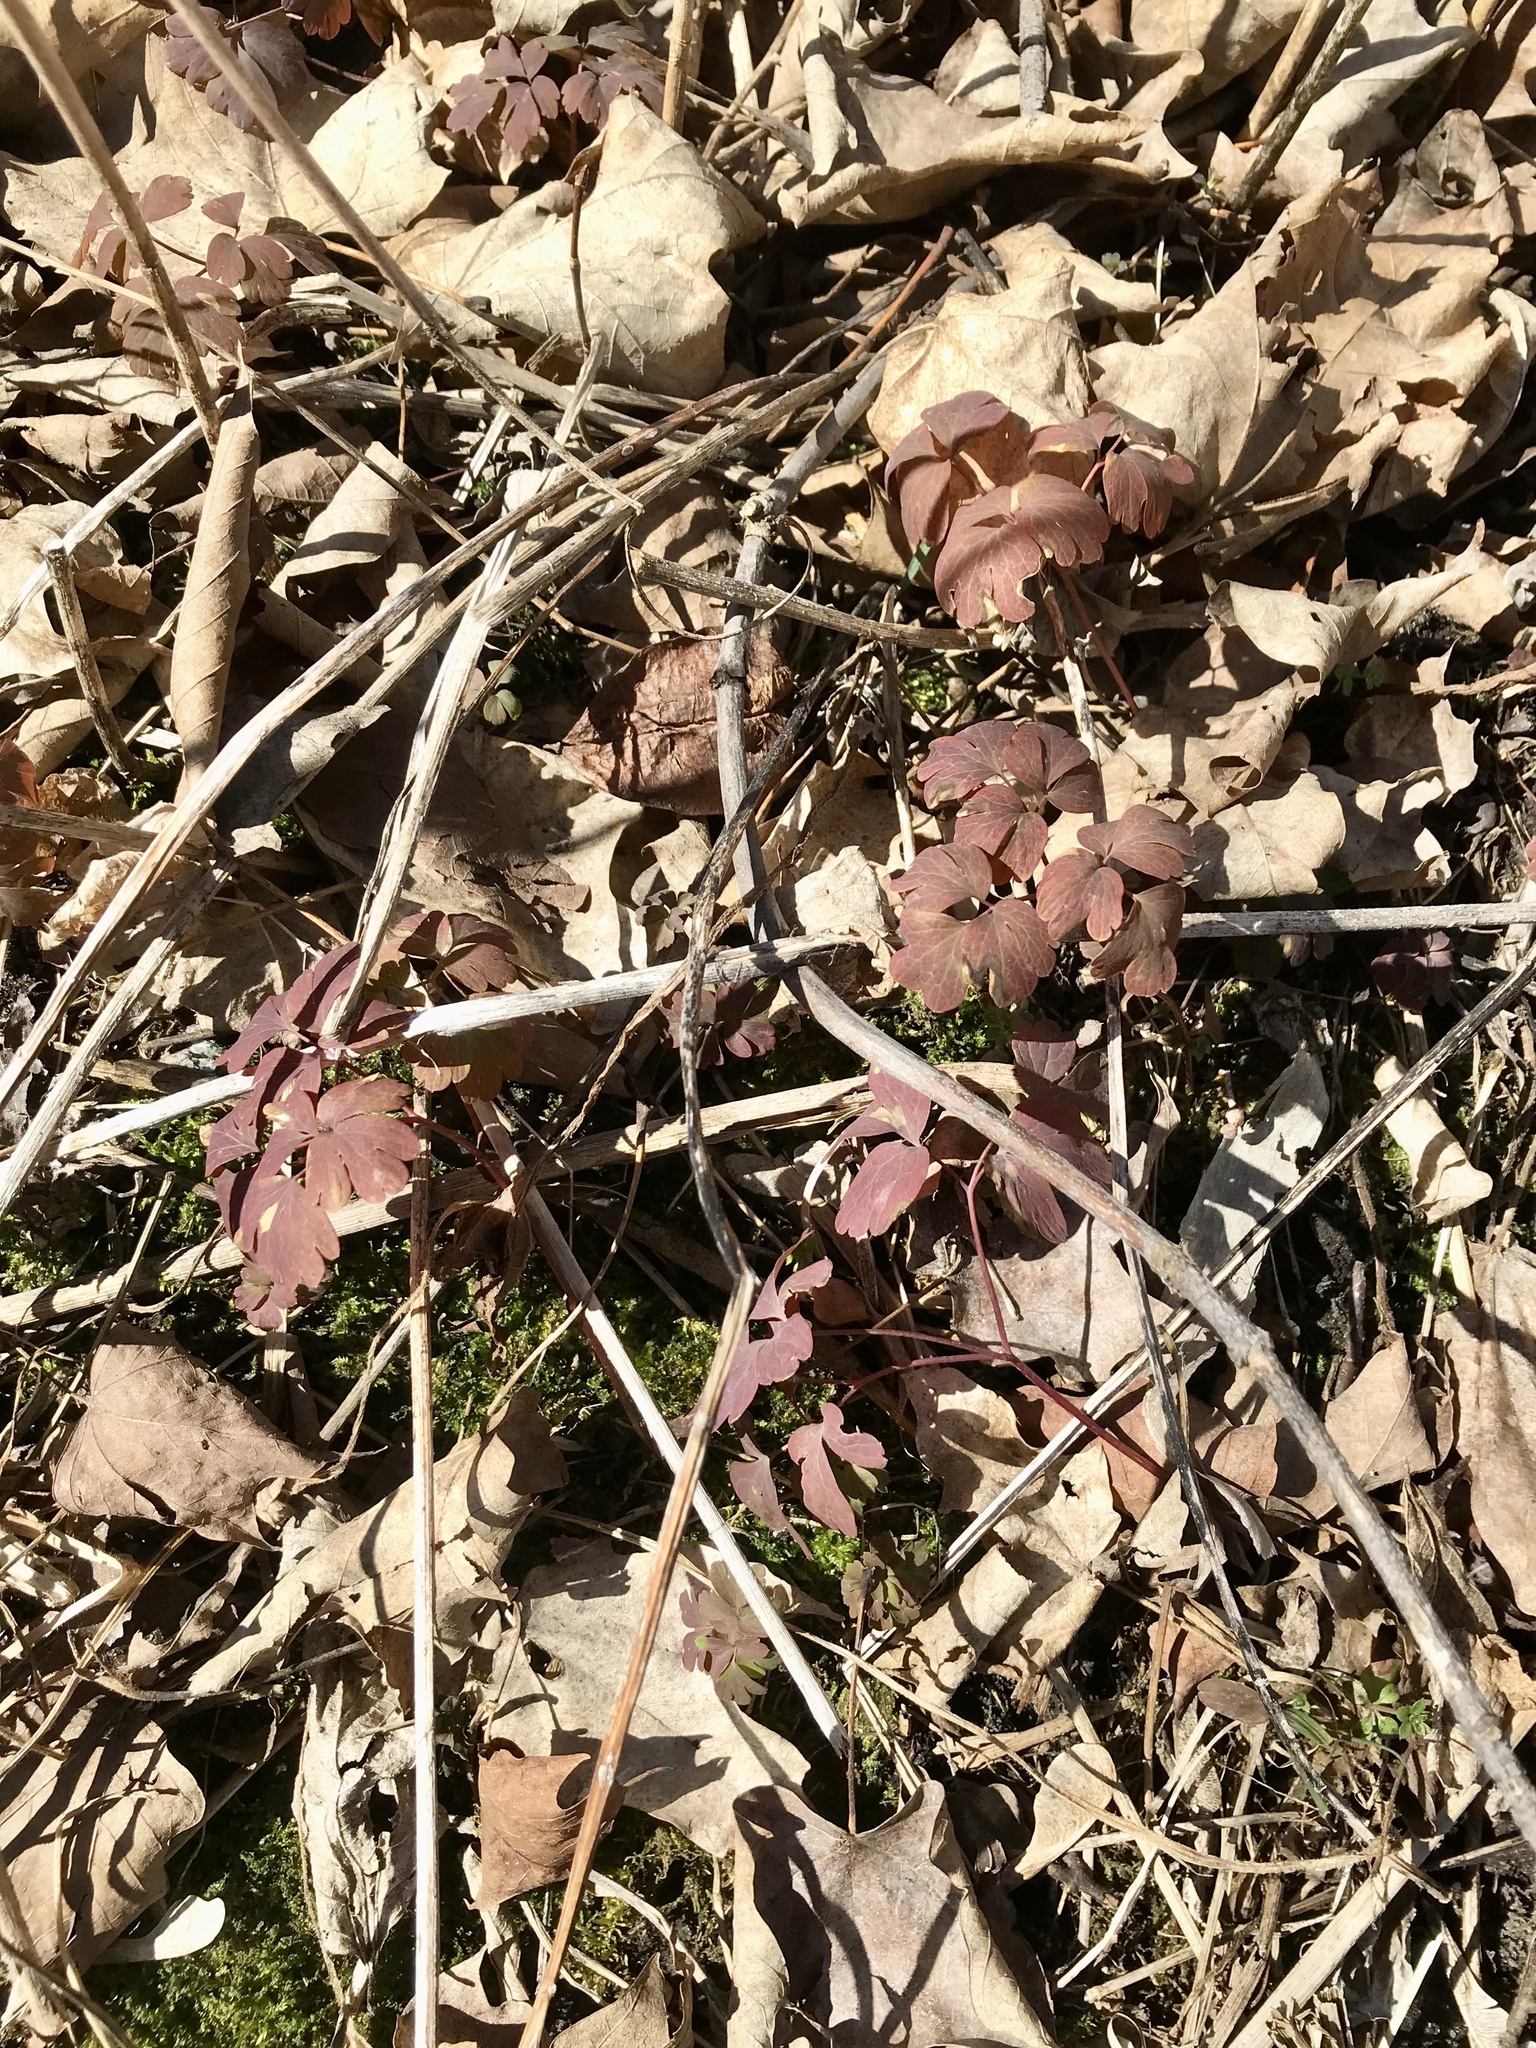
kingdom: Plantae
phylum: Tracheophyta
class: Magnoliopsida
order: Ranunculales
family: Ranunculaceae
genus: Enemion
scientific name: Enemion biternatum
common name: Eastern false rue-anemone
